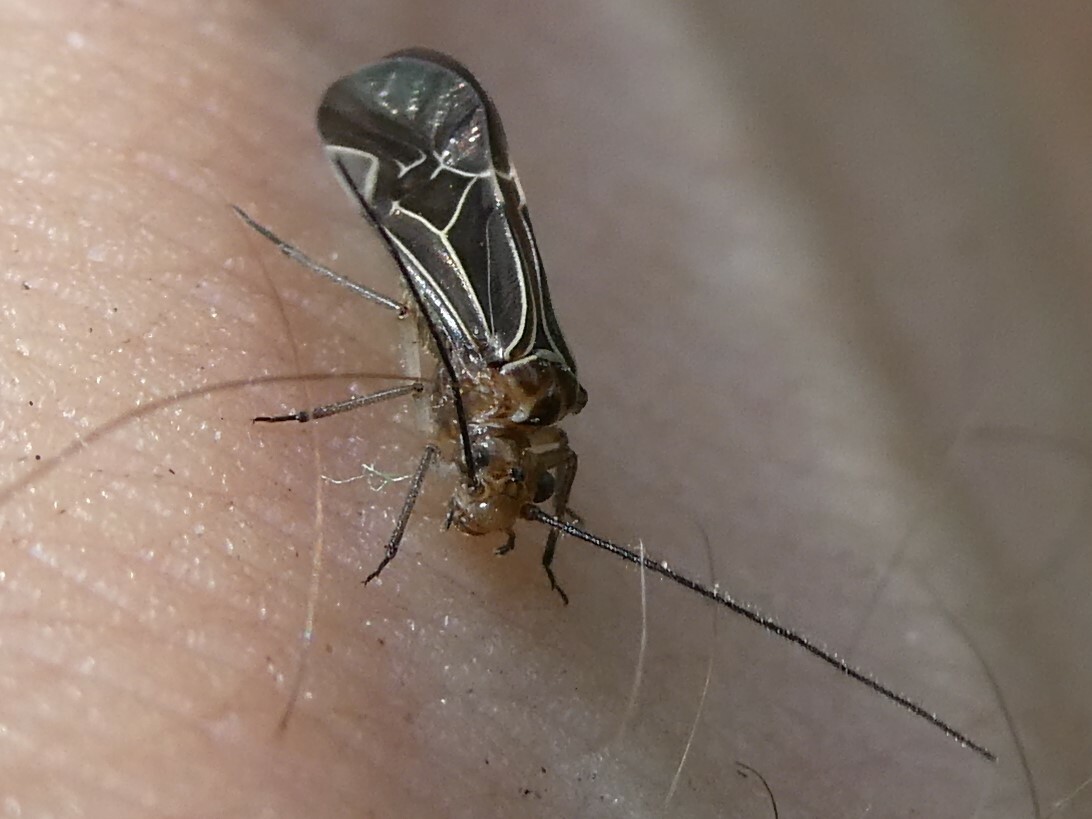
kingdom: Animalia
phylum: Arthropoda
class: Insecta
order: Psocodea
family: Psocidae
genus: Cerastipsocus
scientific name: Cerastipsocus venosus
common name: Tree cattle
